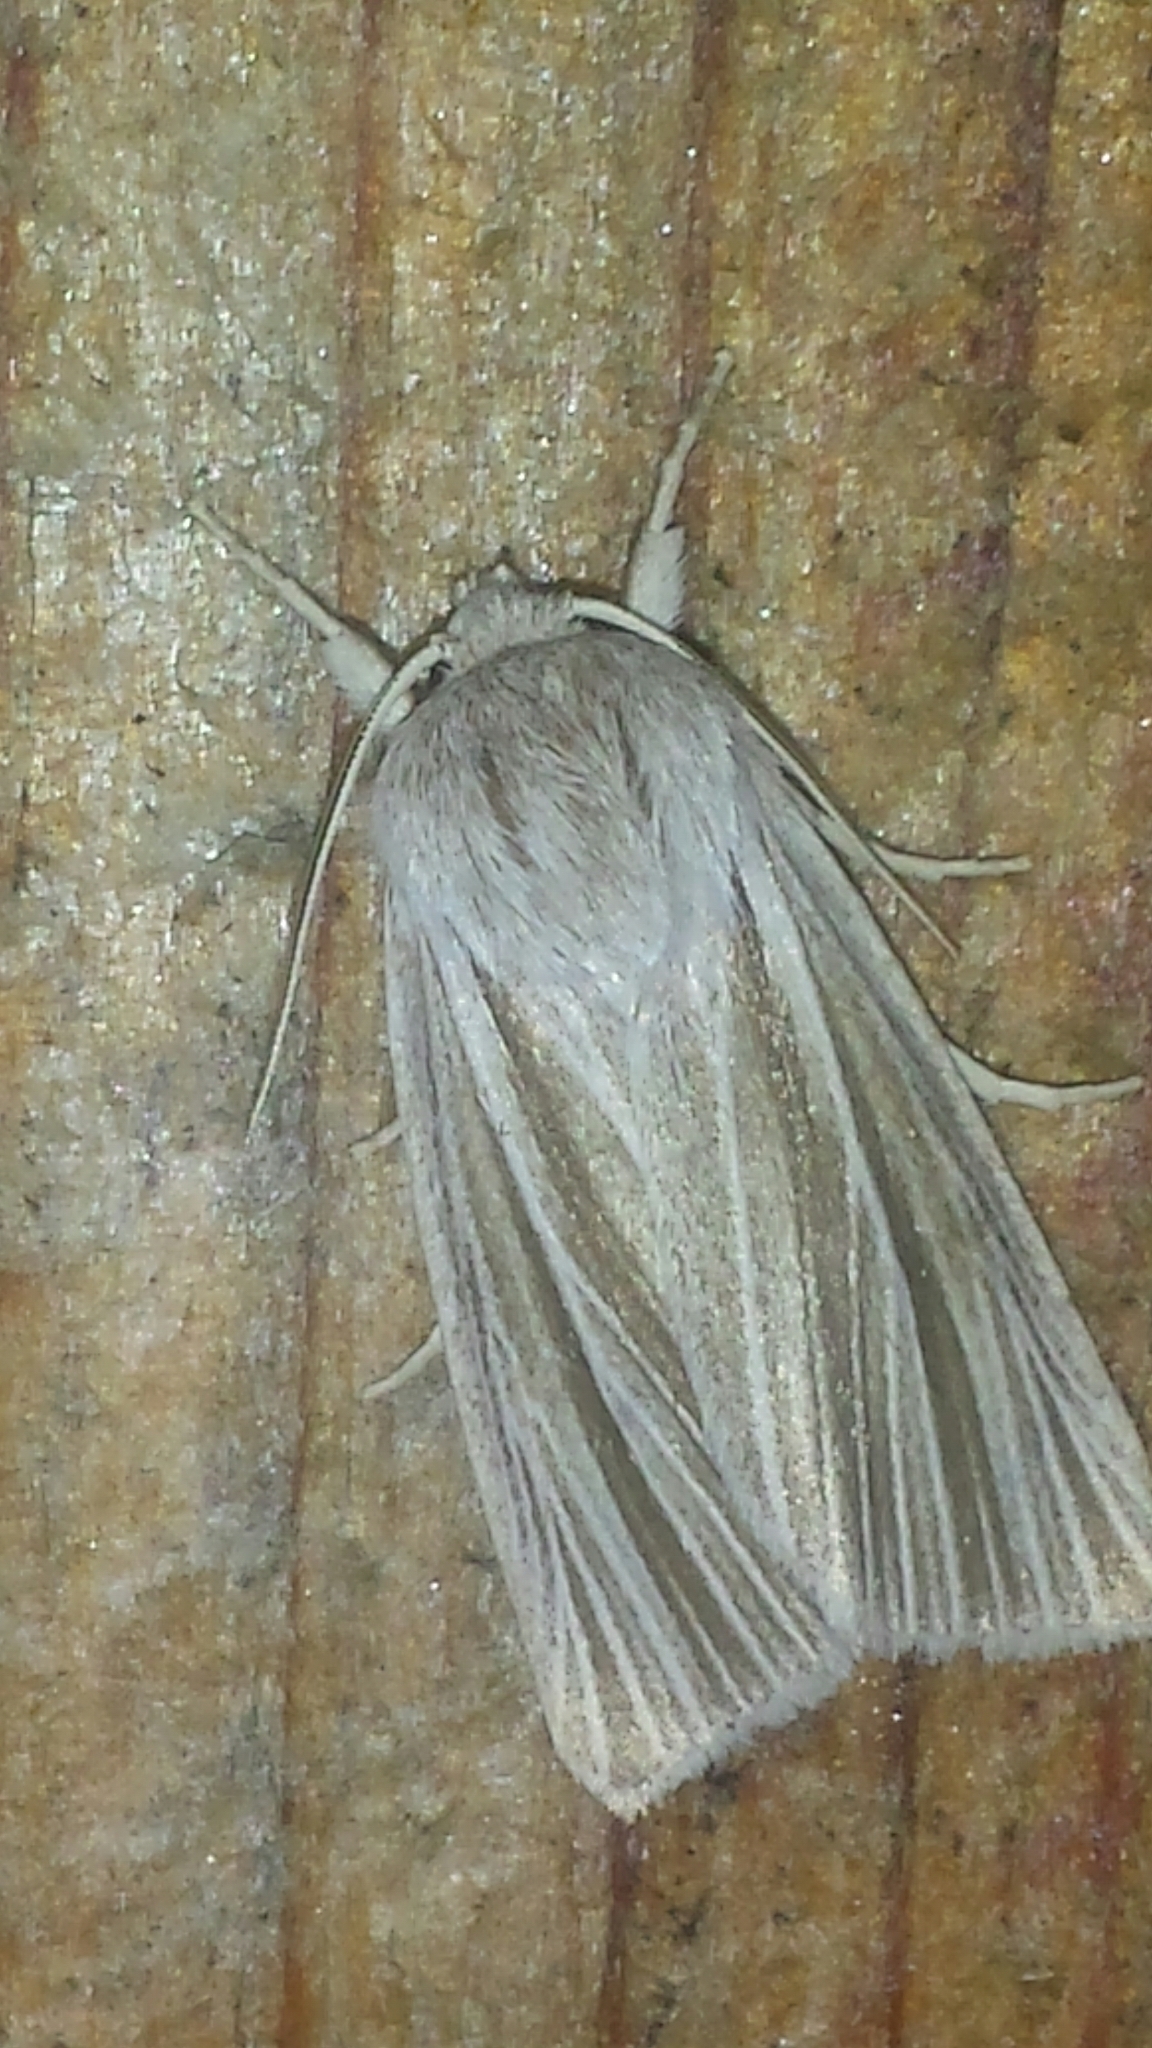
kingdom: Animalia
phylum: Arthropoda
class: Insecta
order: Lepidoptera
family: Noctuidae
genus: Acronicta
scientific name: Acronicta insularis
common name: Henry's marsh moth
